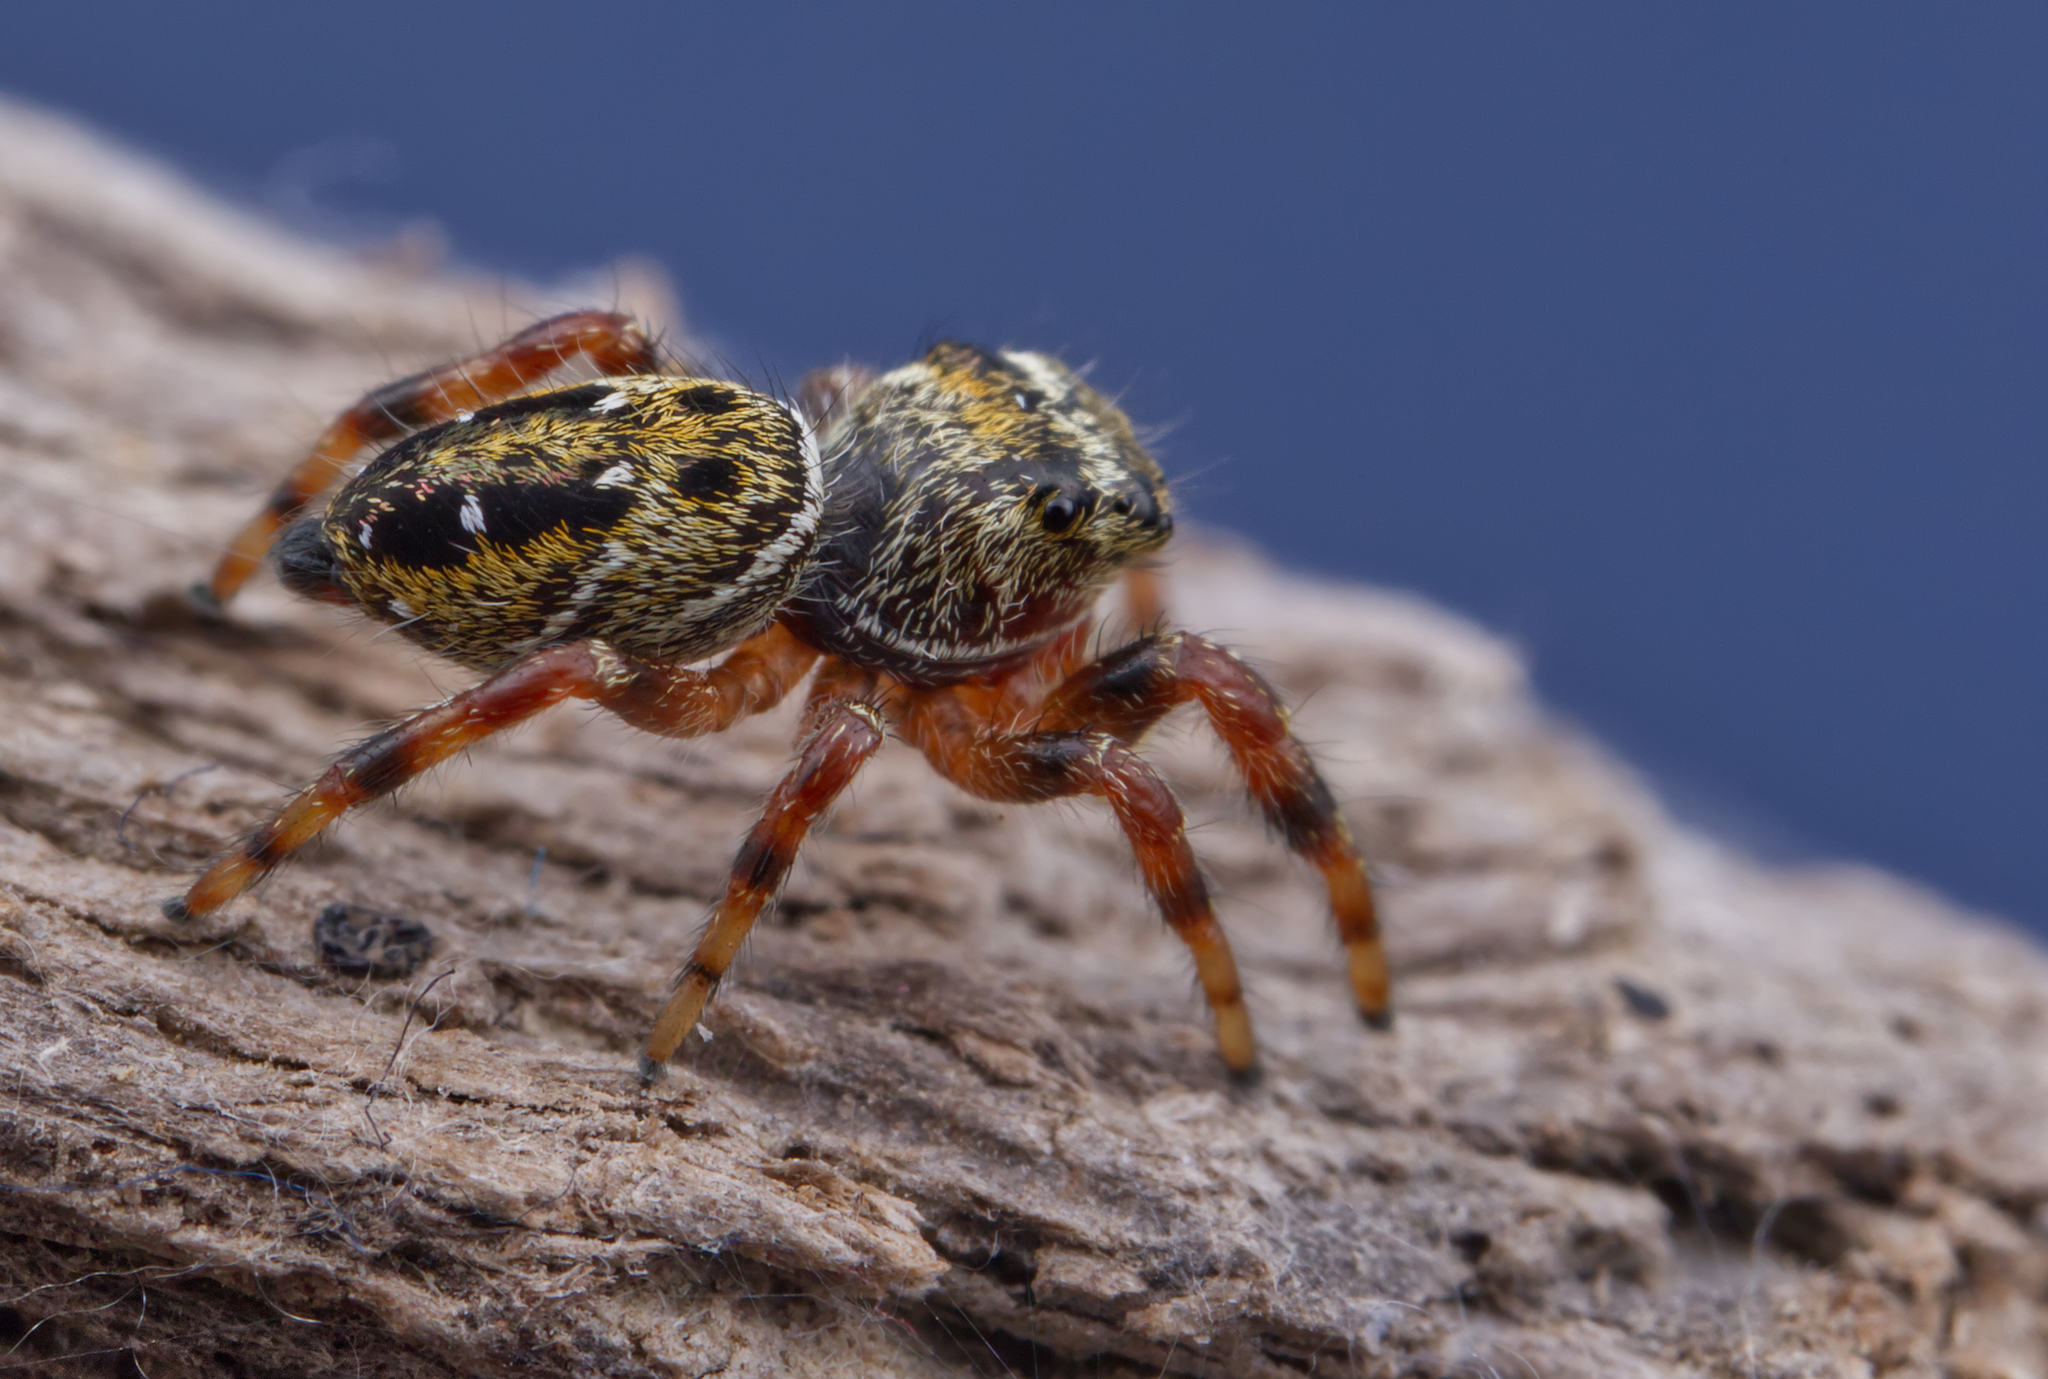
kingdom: Animalia
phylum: Arthropoda
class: Arachnida
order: Araneae
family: Salticidae
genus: Phidippus
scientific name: Phidippus clarus
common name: Brilliant jumping spider
